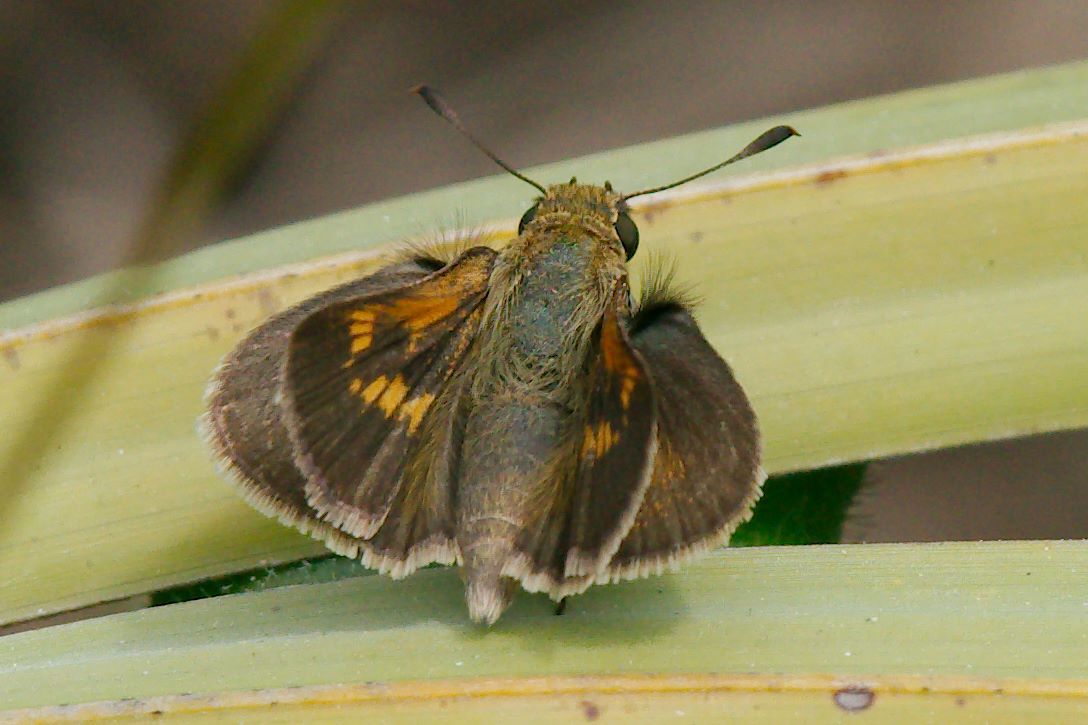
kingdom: Animalia
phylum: Arthropoda
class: Insecta
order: Lepidoptera
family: Hesperiidae
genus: Polites
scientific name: Polites themistocles
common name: Tawny-edged skipper
